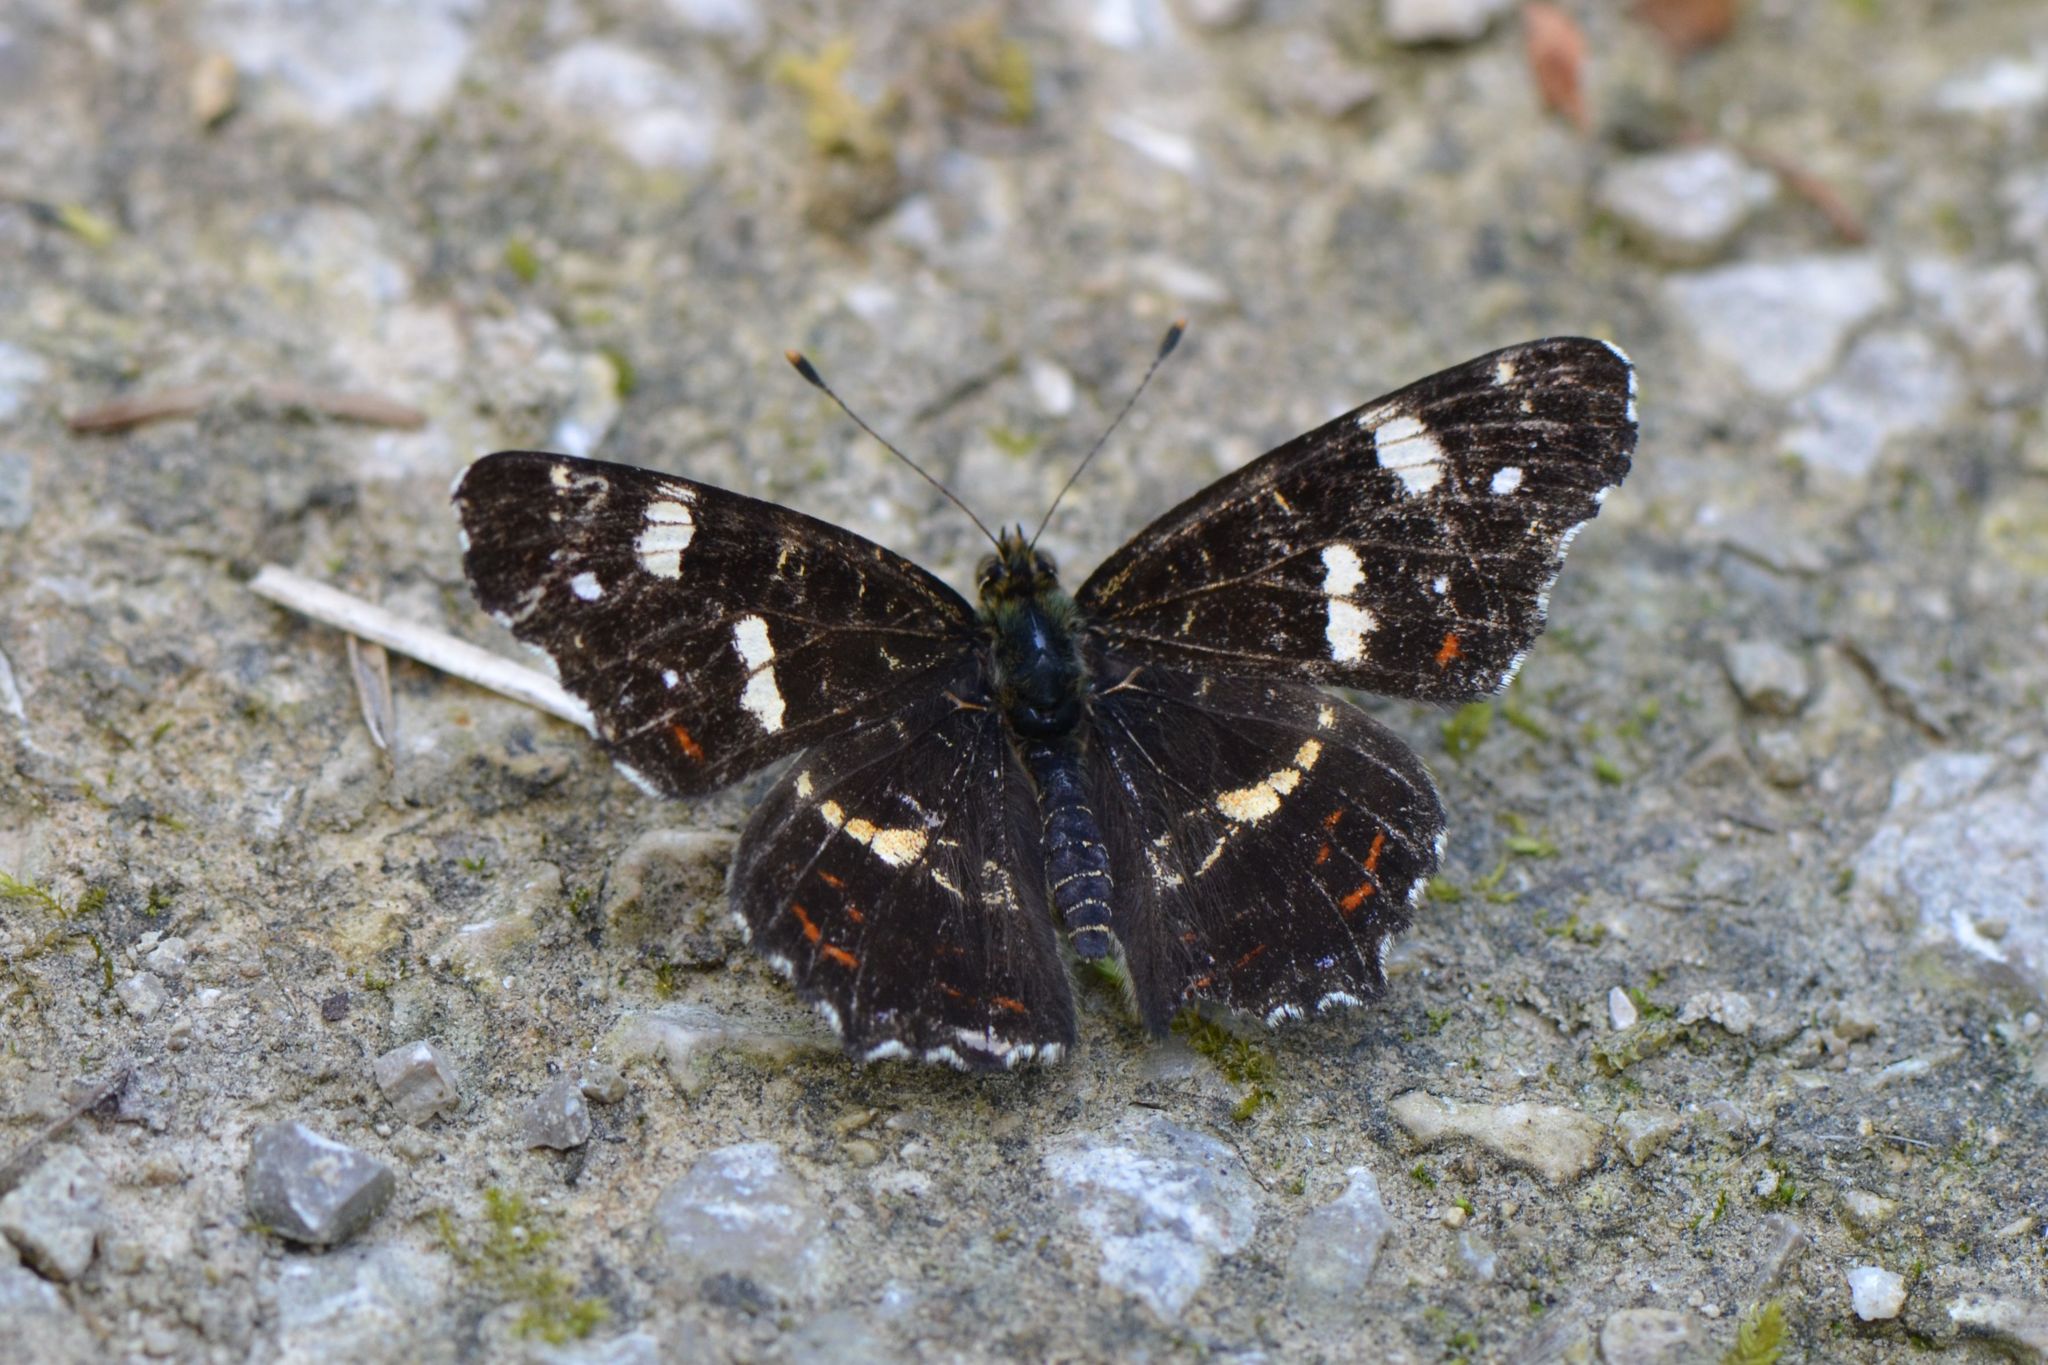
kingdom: Animalia
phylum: Arthropoda
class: Insecta
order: Lepidoptera
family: Nymphalidae
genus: Araschnia
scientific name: Araschnia levana
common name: Map butterfly
